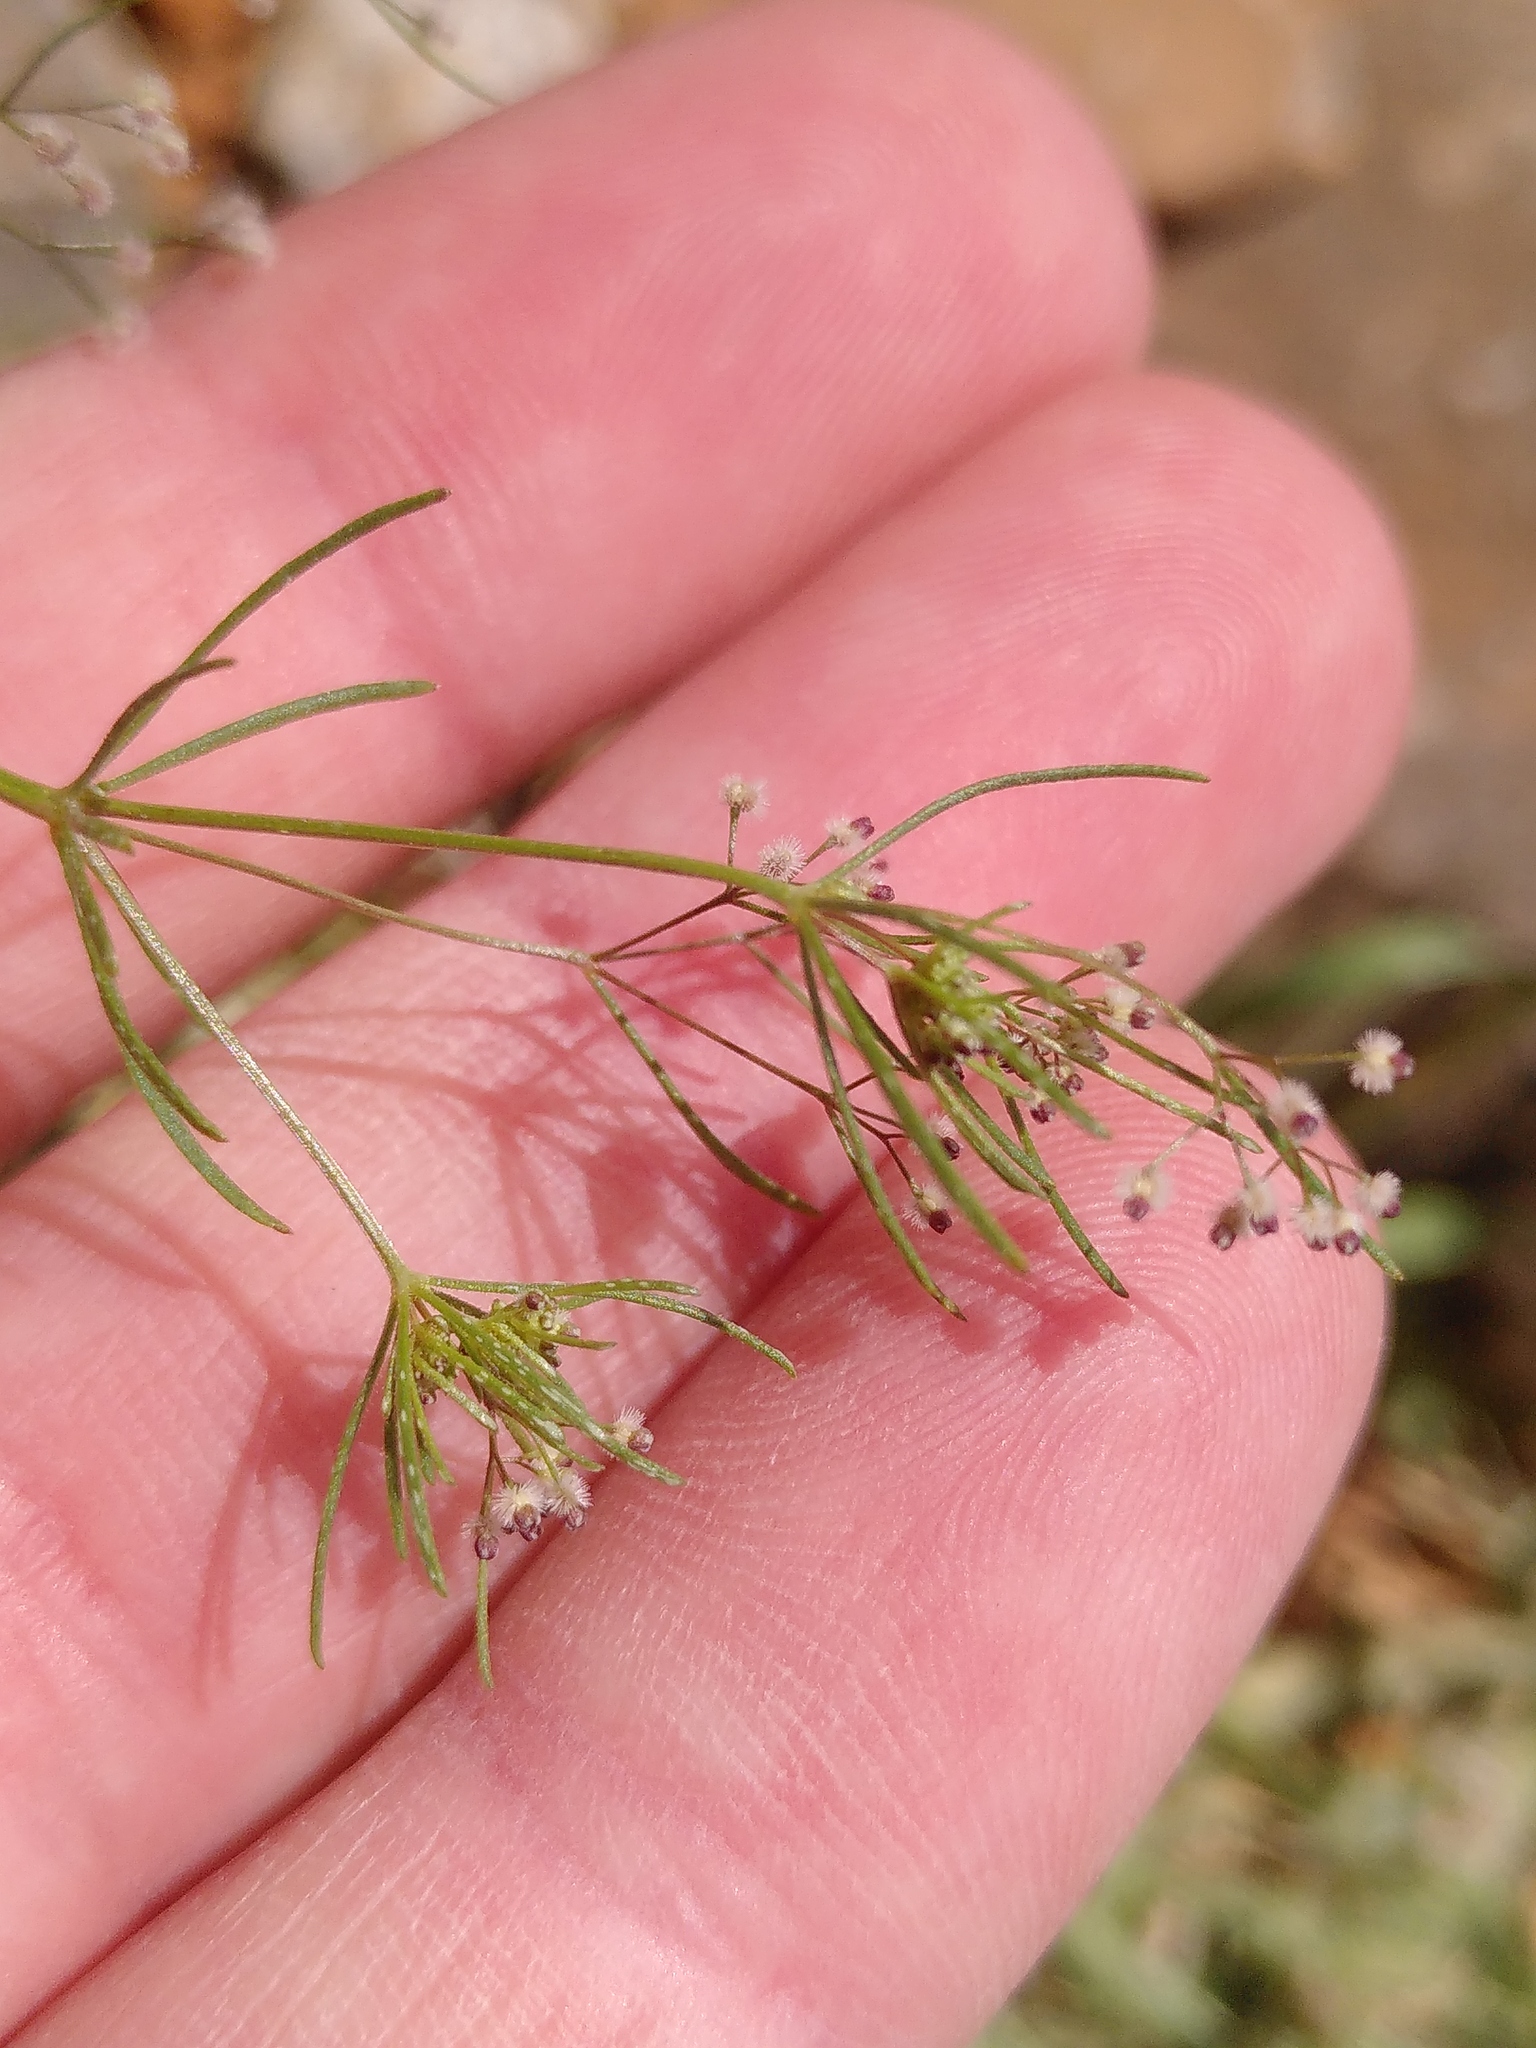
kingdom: Plantae
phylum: Tracheophyta
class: Magnoliopsida
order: Gentianales
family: Rubiaceae
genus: Galium
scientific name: Galium setaceum
